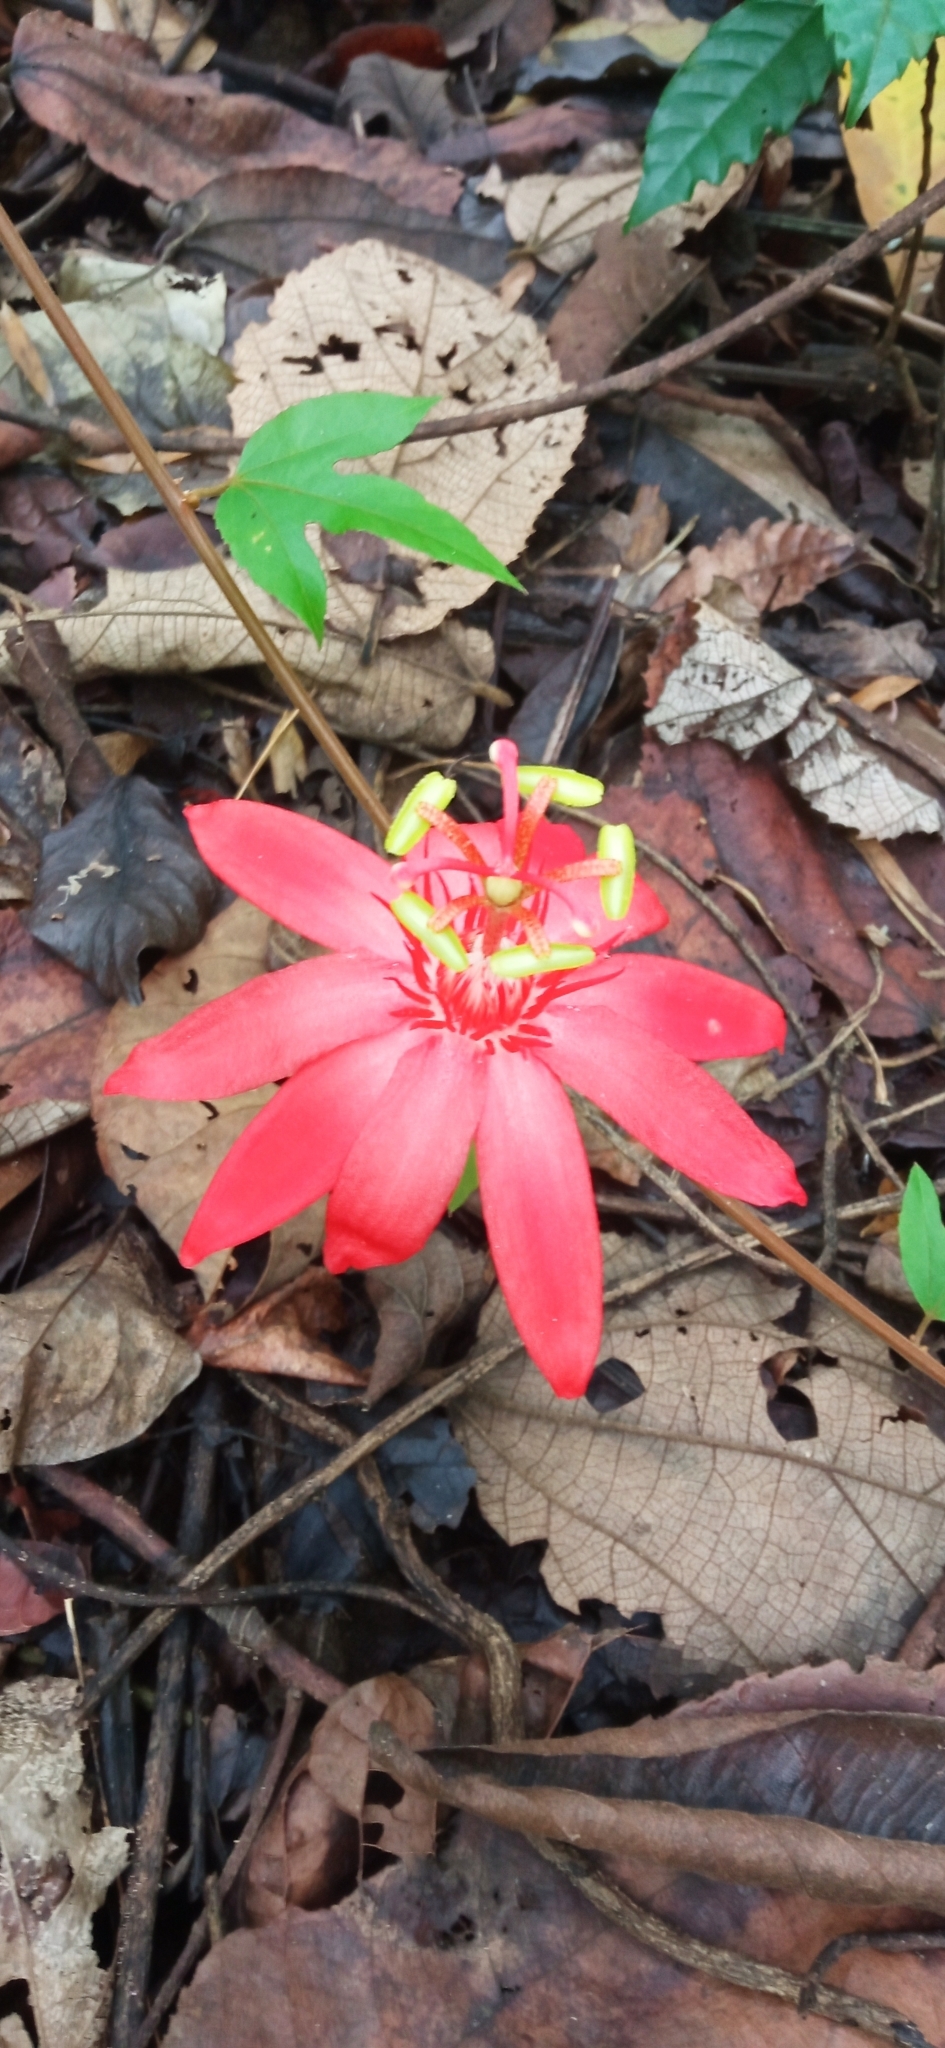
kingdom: Plantae
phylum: Tracheophyta
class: Magnoliopsida
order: Malpighiales
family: Passifloraceae
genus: Passiflora
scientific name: Passiflora vitifolia
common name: Perfumed passionflower
